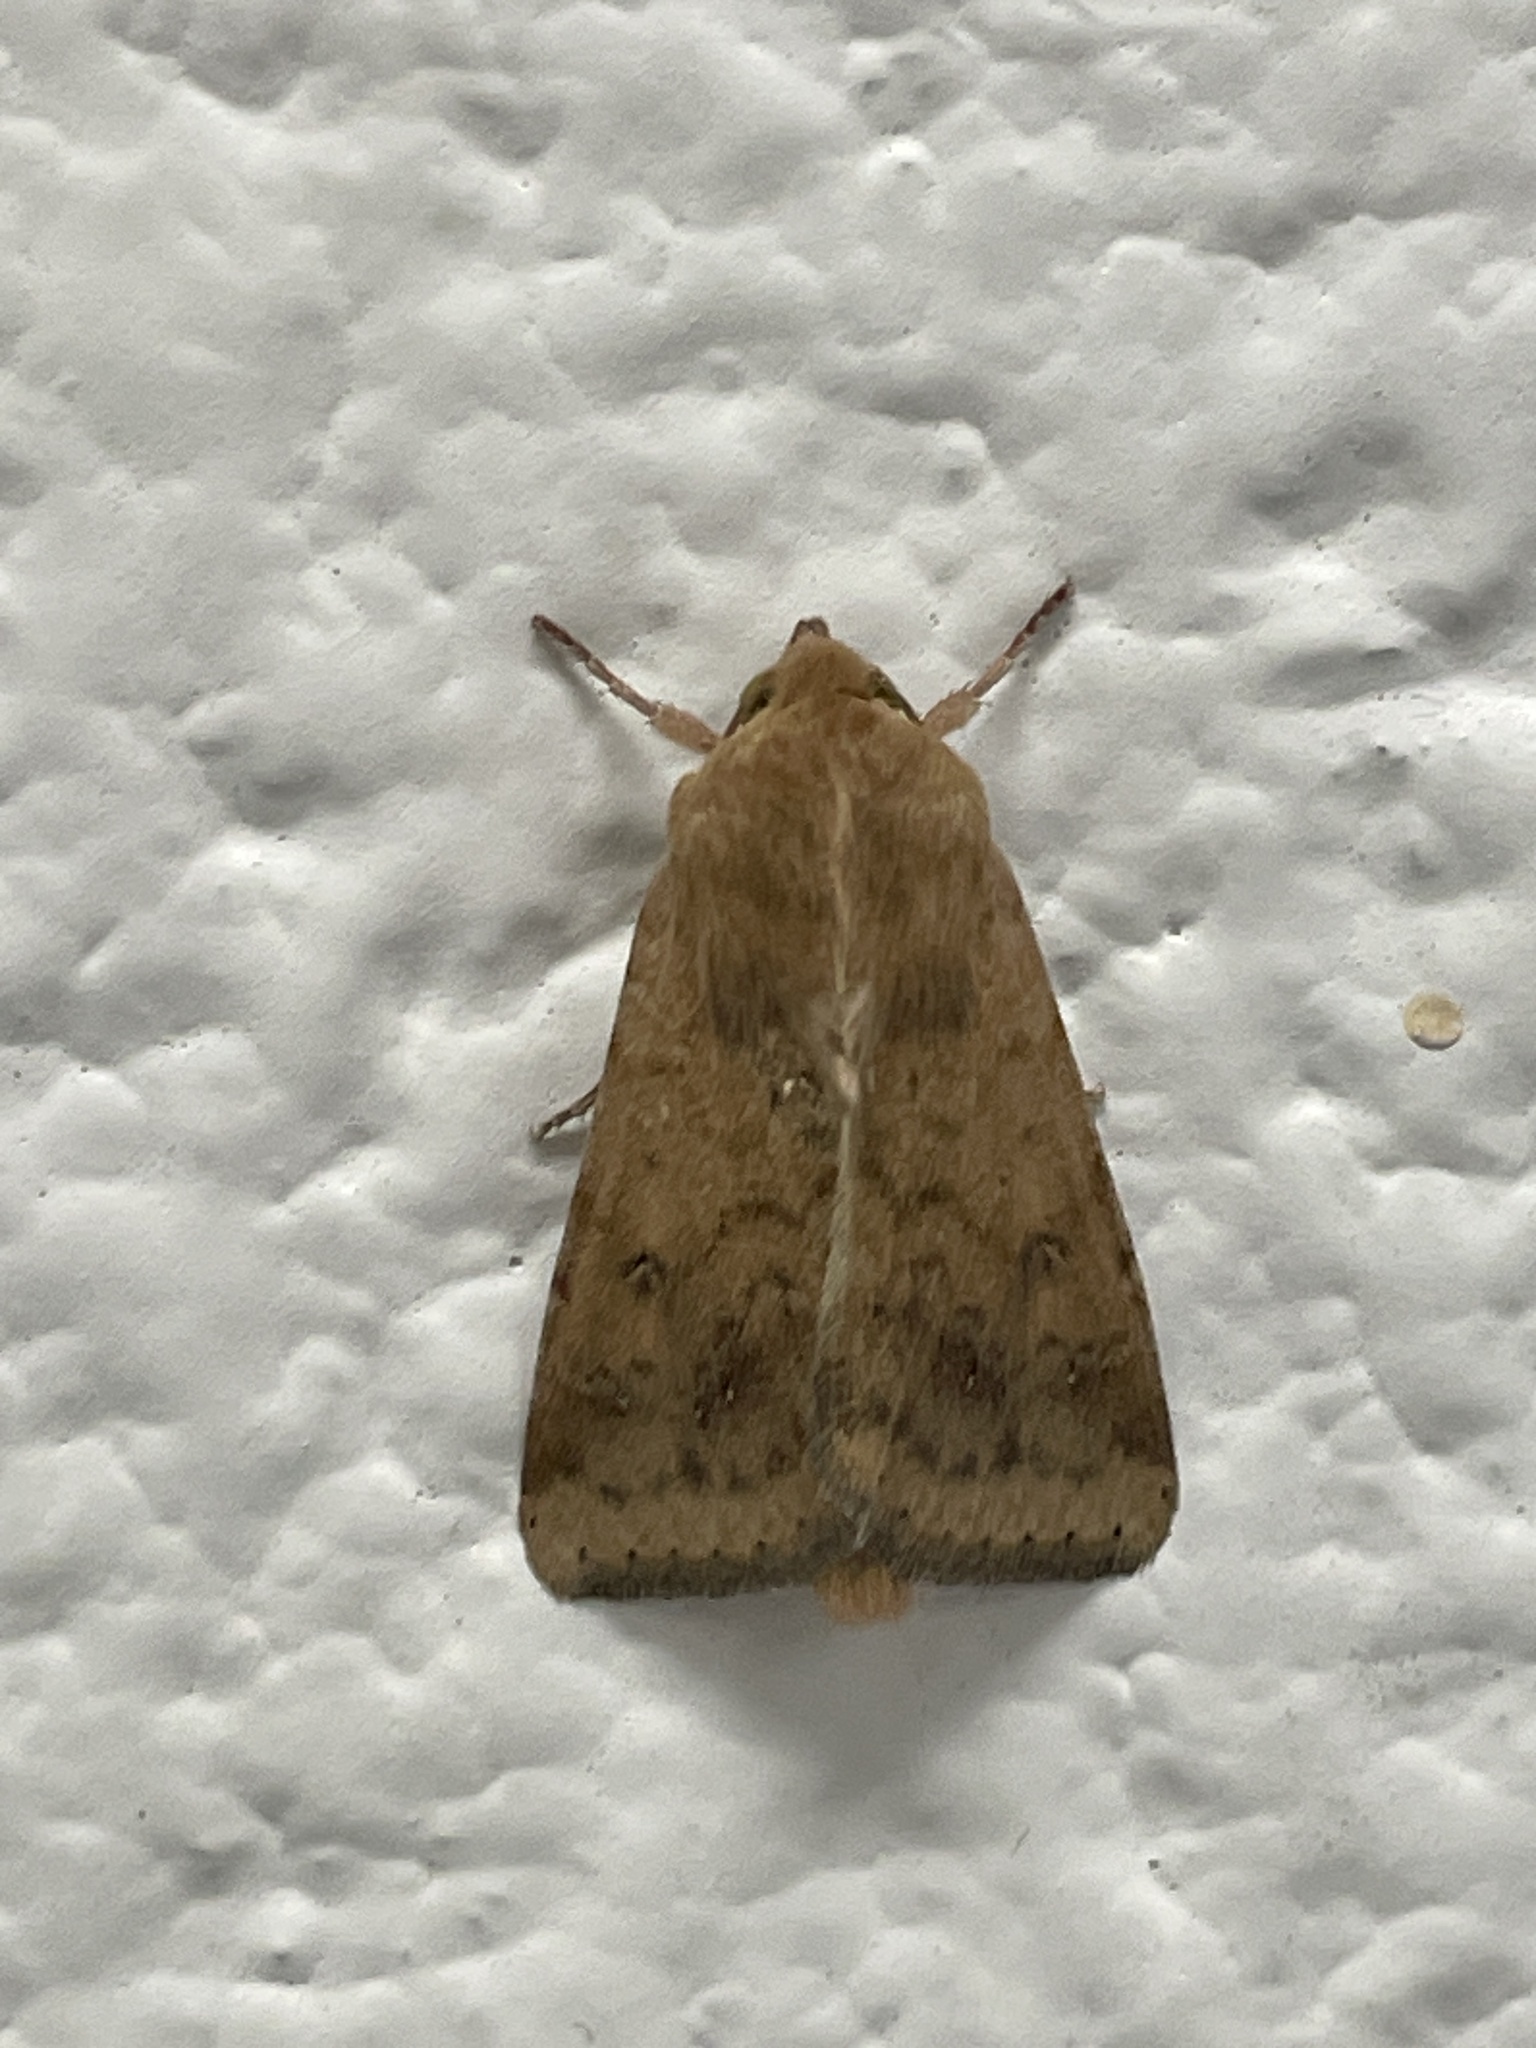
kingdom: Animalia
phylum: Arthropoda
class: Insecta
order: Lepidoptera
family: Noctuidae
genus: Helicoverpa
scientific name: Helicoverpa zea
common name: Bollworm
